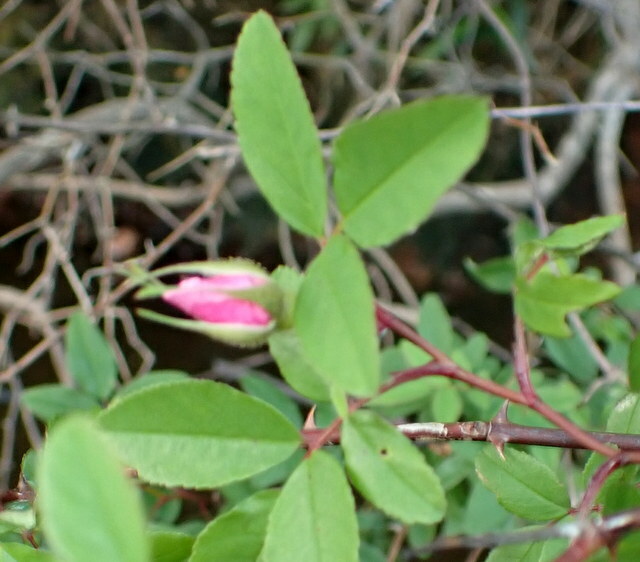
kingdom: Plantae
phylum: Tracheophyta
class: Magnoliopsida
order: Rosales
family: Rosaceae
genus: Rosa
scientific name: Rosa palustris
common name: Swamp rose
